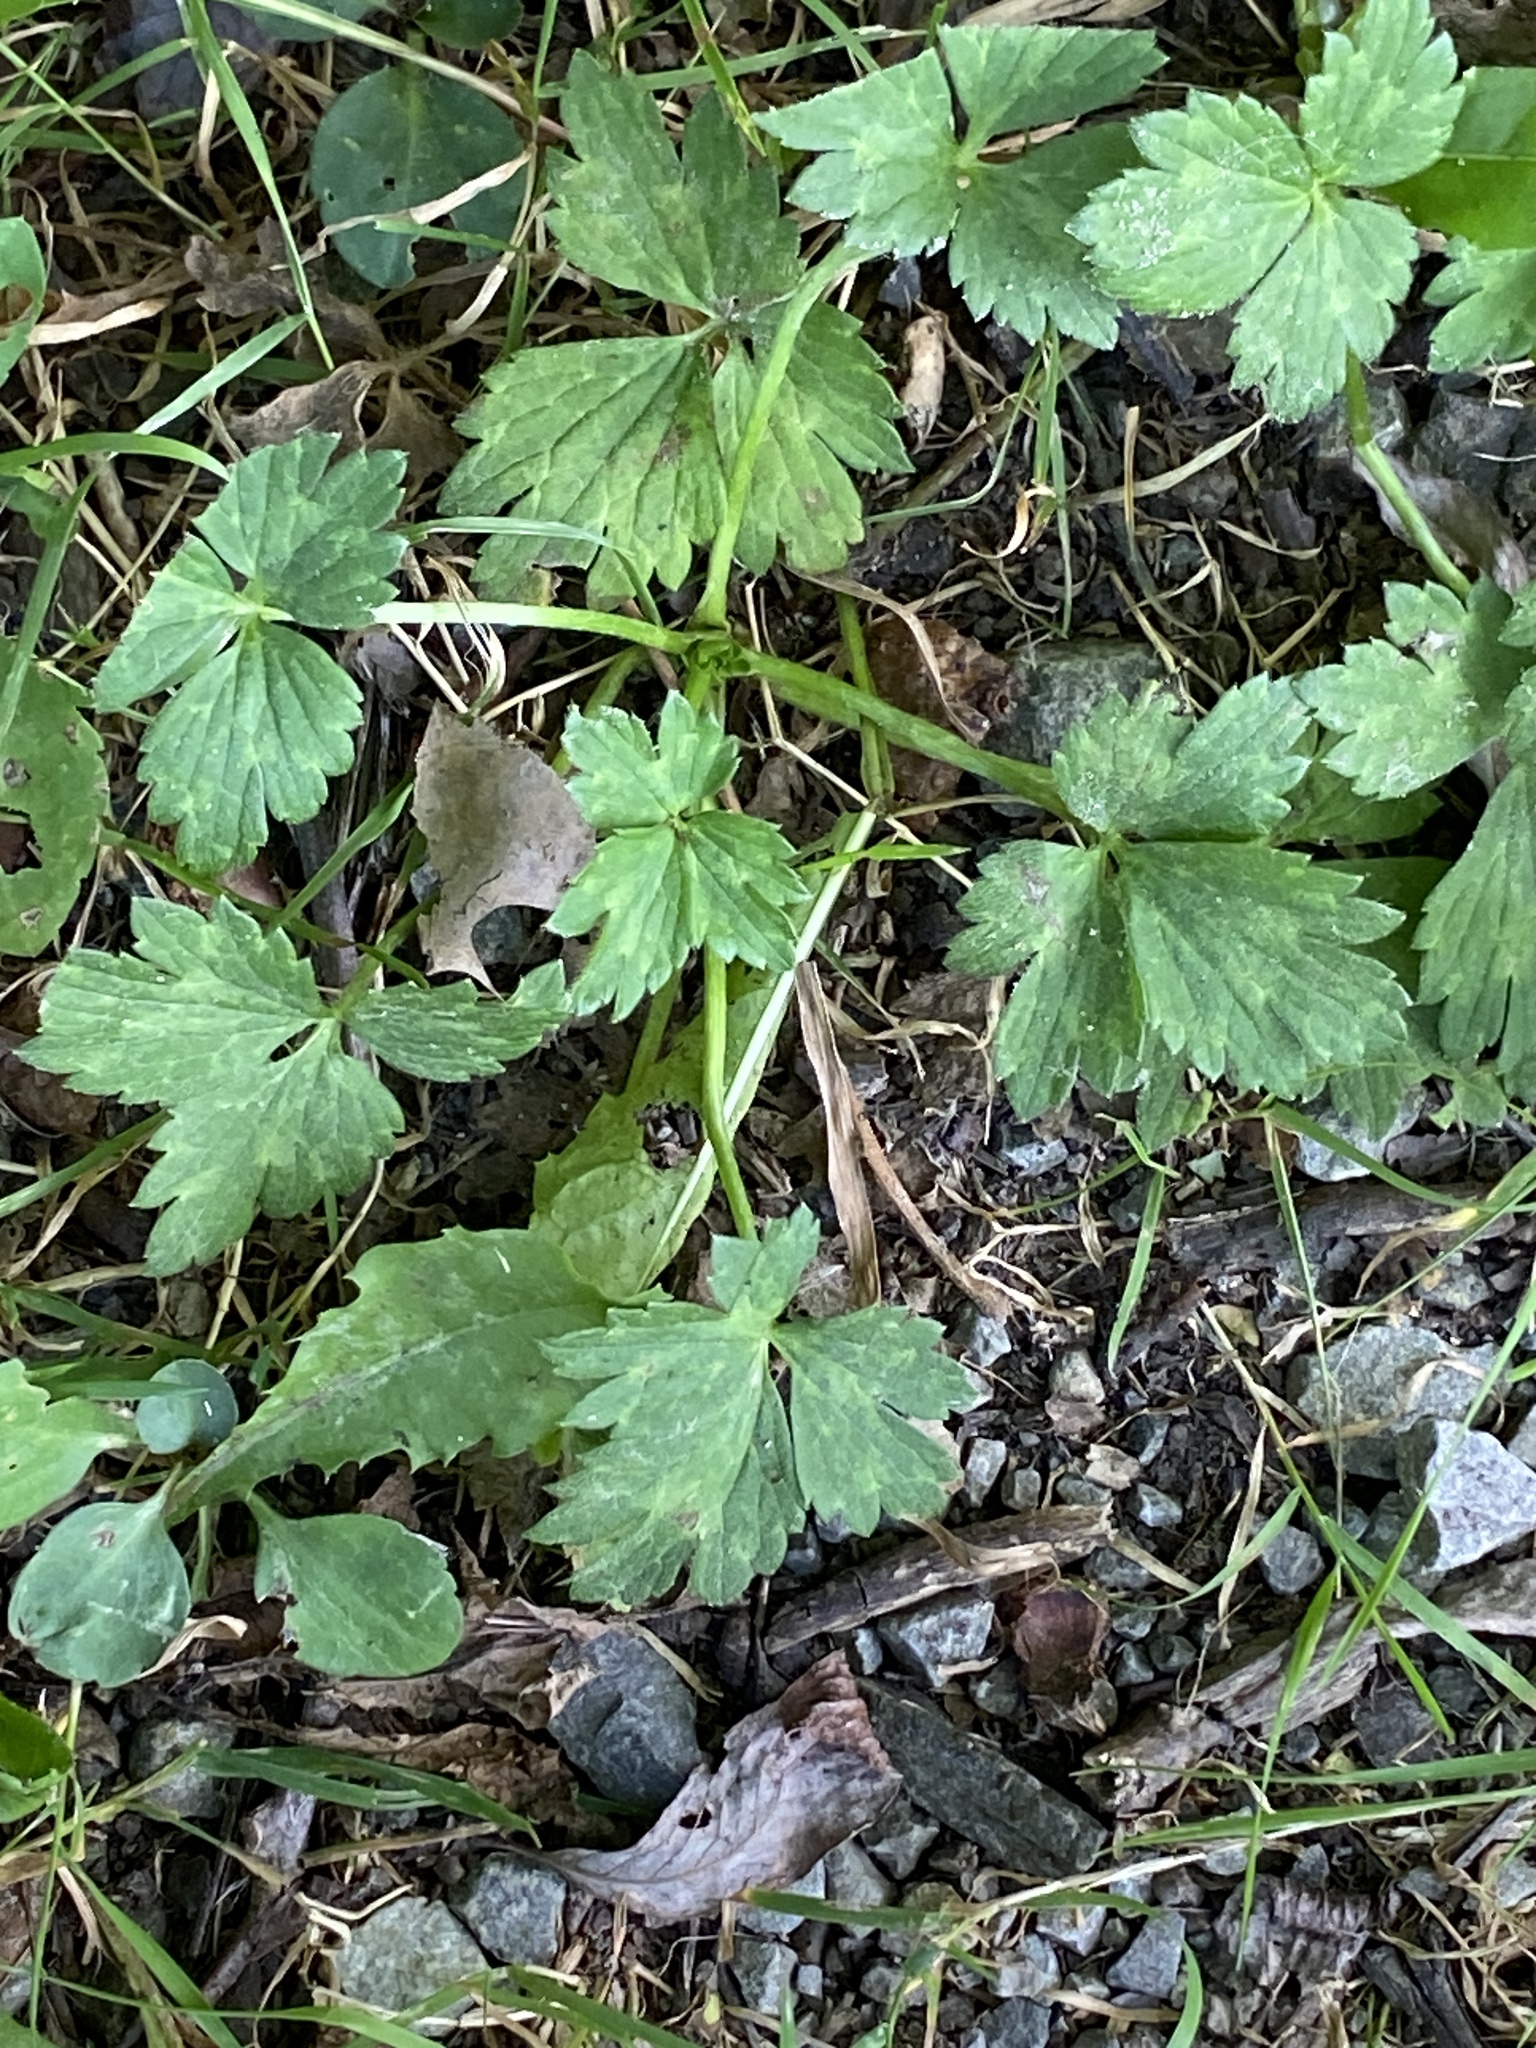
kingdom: Plantae
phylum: Tracheophyta
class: Magnoliopsida
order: Ranunculales
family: Ranunculaceae
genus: Ranunculus
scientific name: Ranunculus repens
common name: Creeping buttercup
